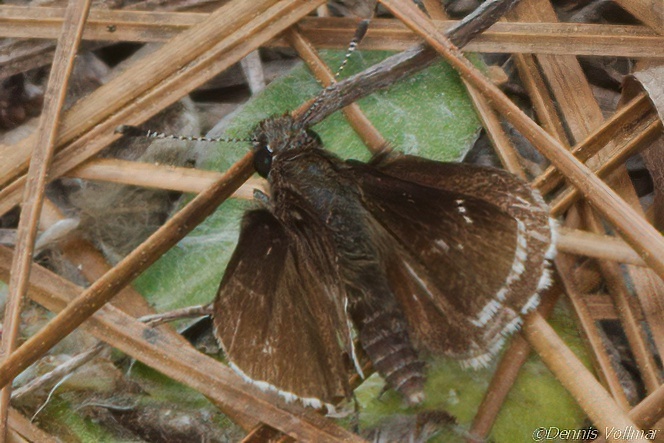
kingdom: Animalia
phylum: Arthropoda
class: Insecta
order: Lepidoptera
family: Hesperiidae
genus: Mastor
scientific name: Mastor alternata
